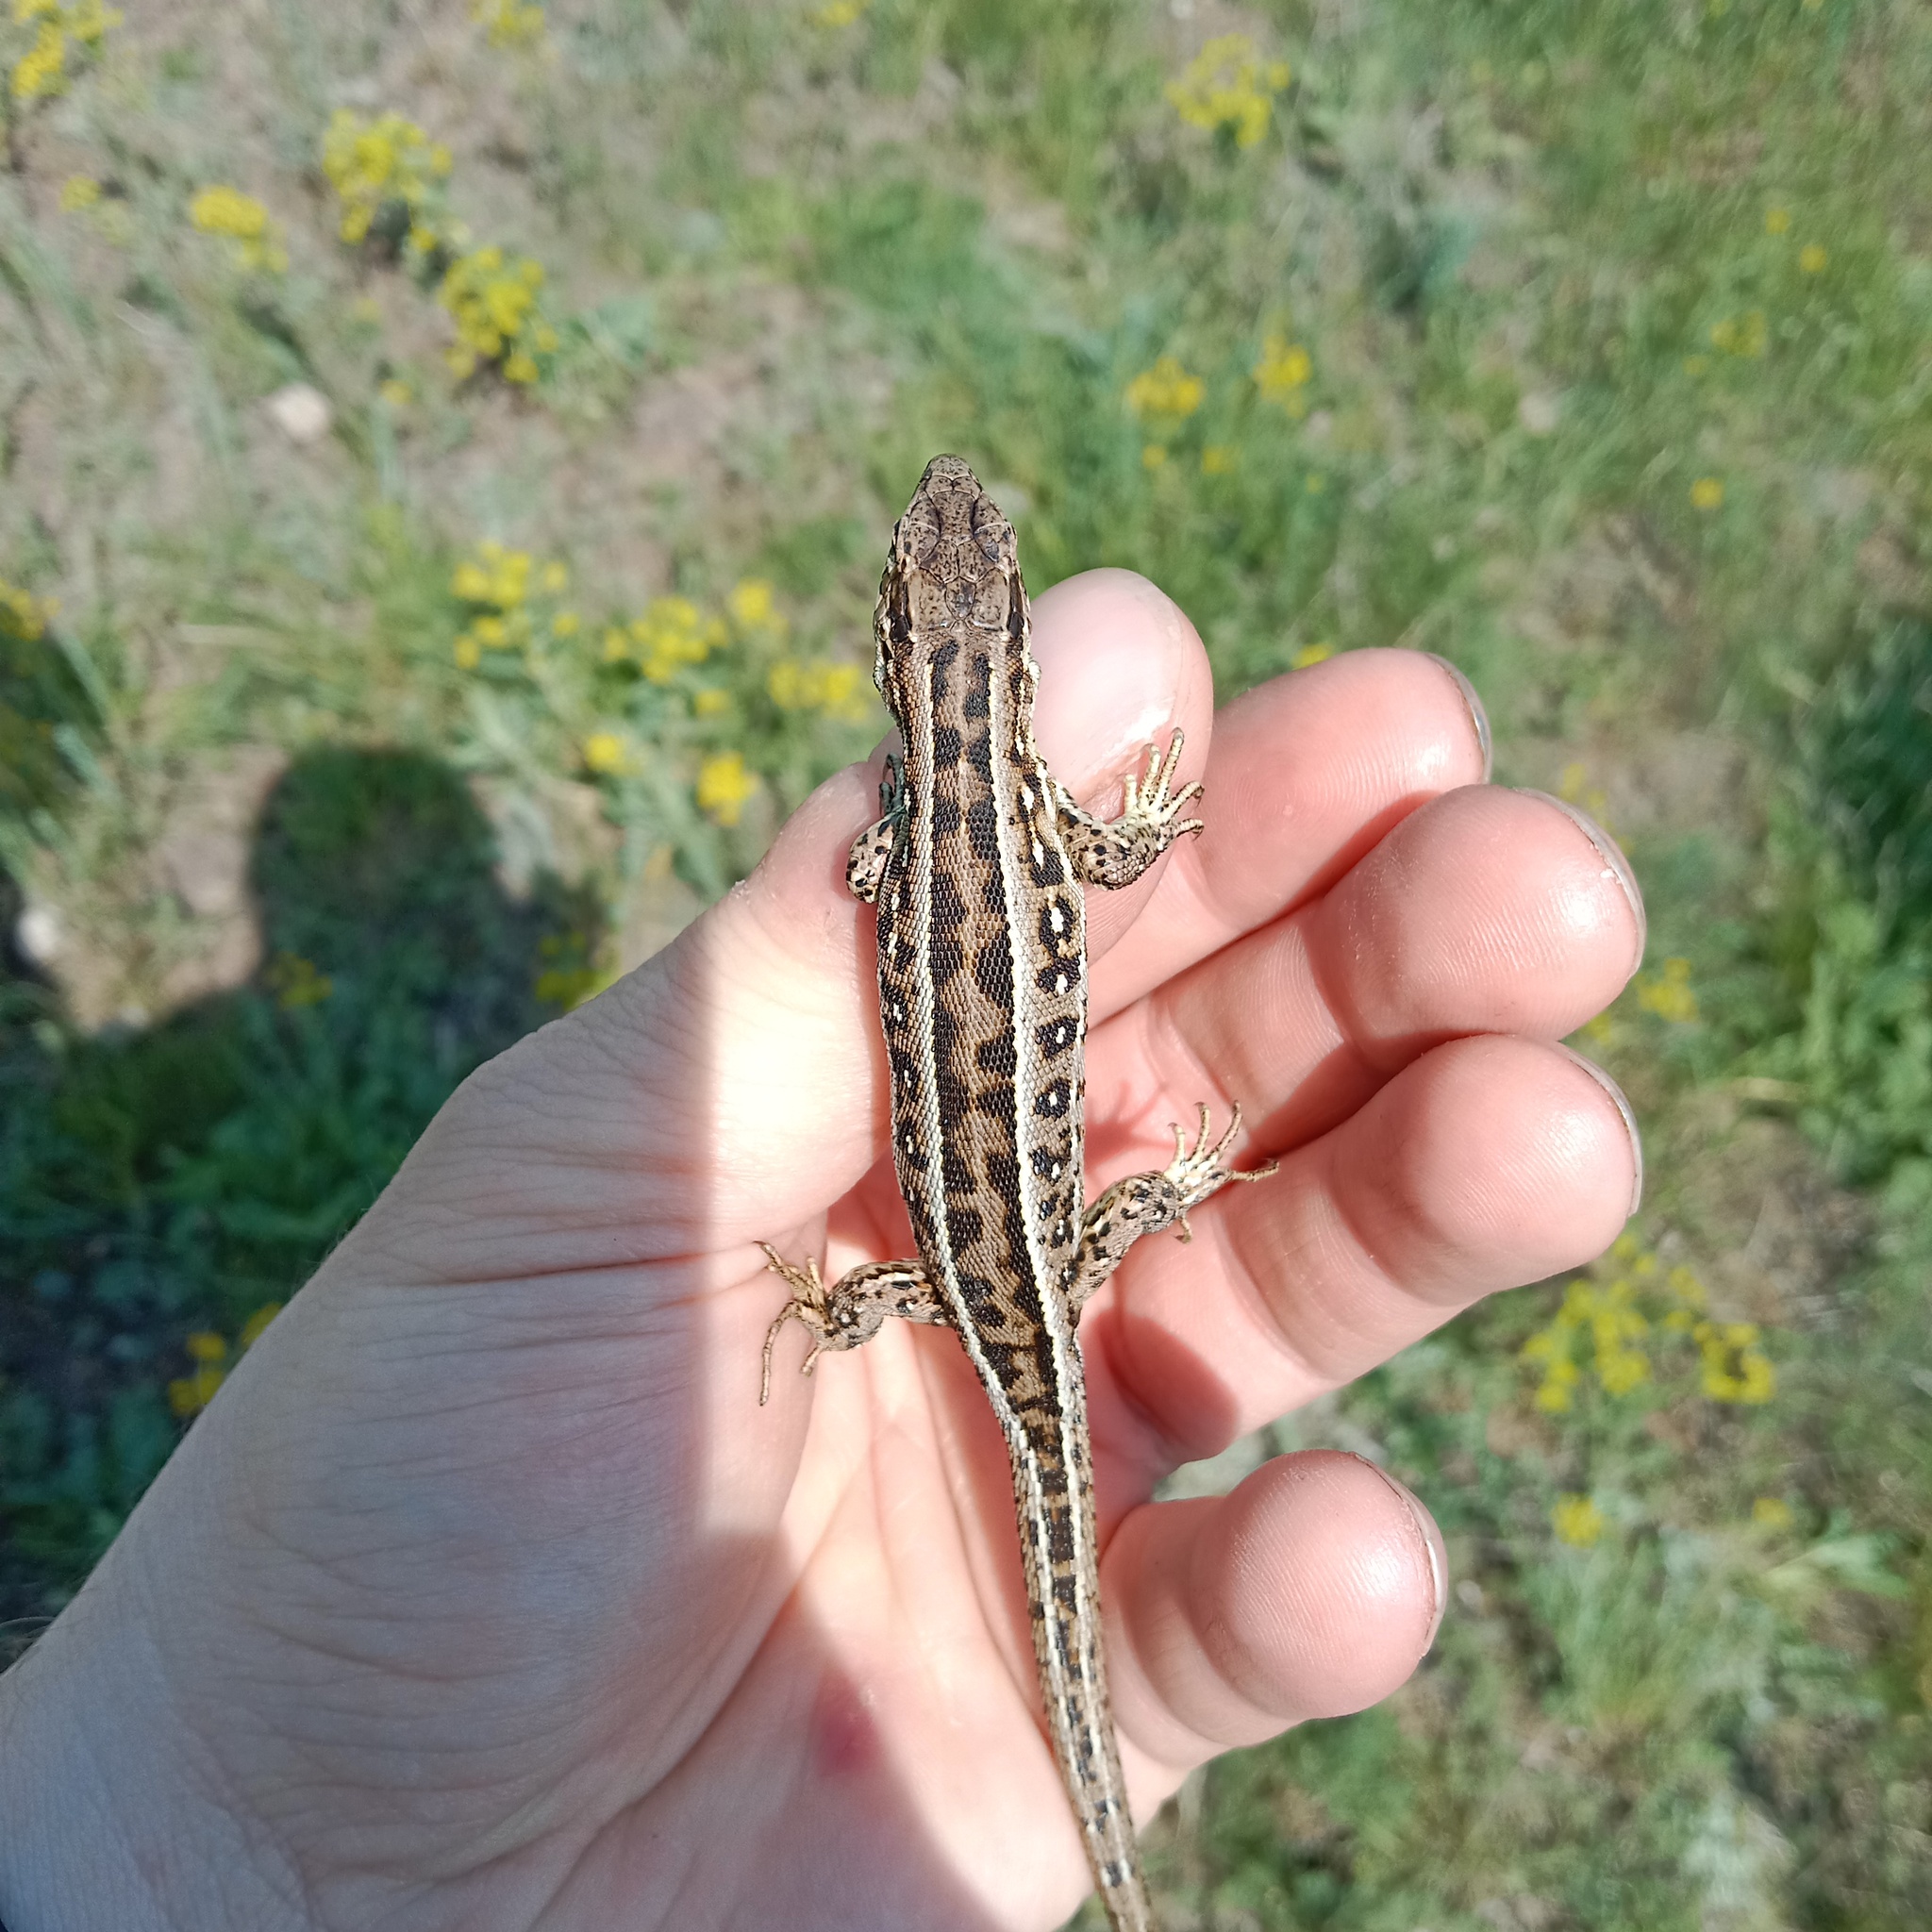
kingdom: Animalia
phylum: Chordata
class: Squamata
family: Lacertidae
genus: Lacerta
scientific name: Lacerta agilis
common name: Sand lizard
